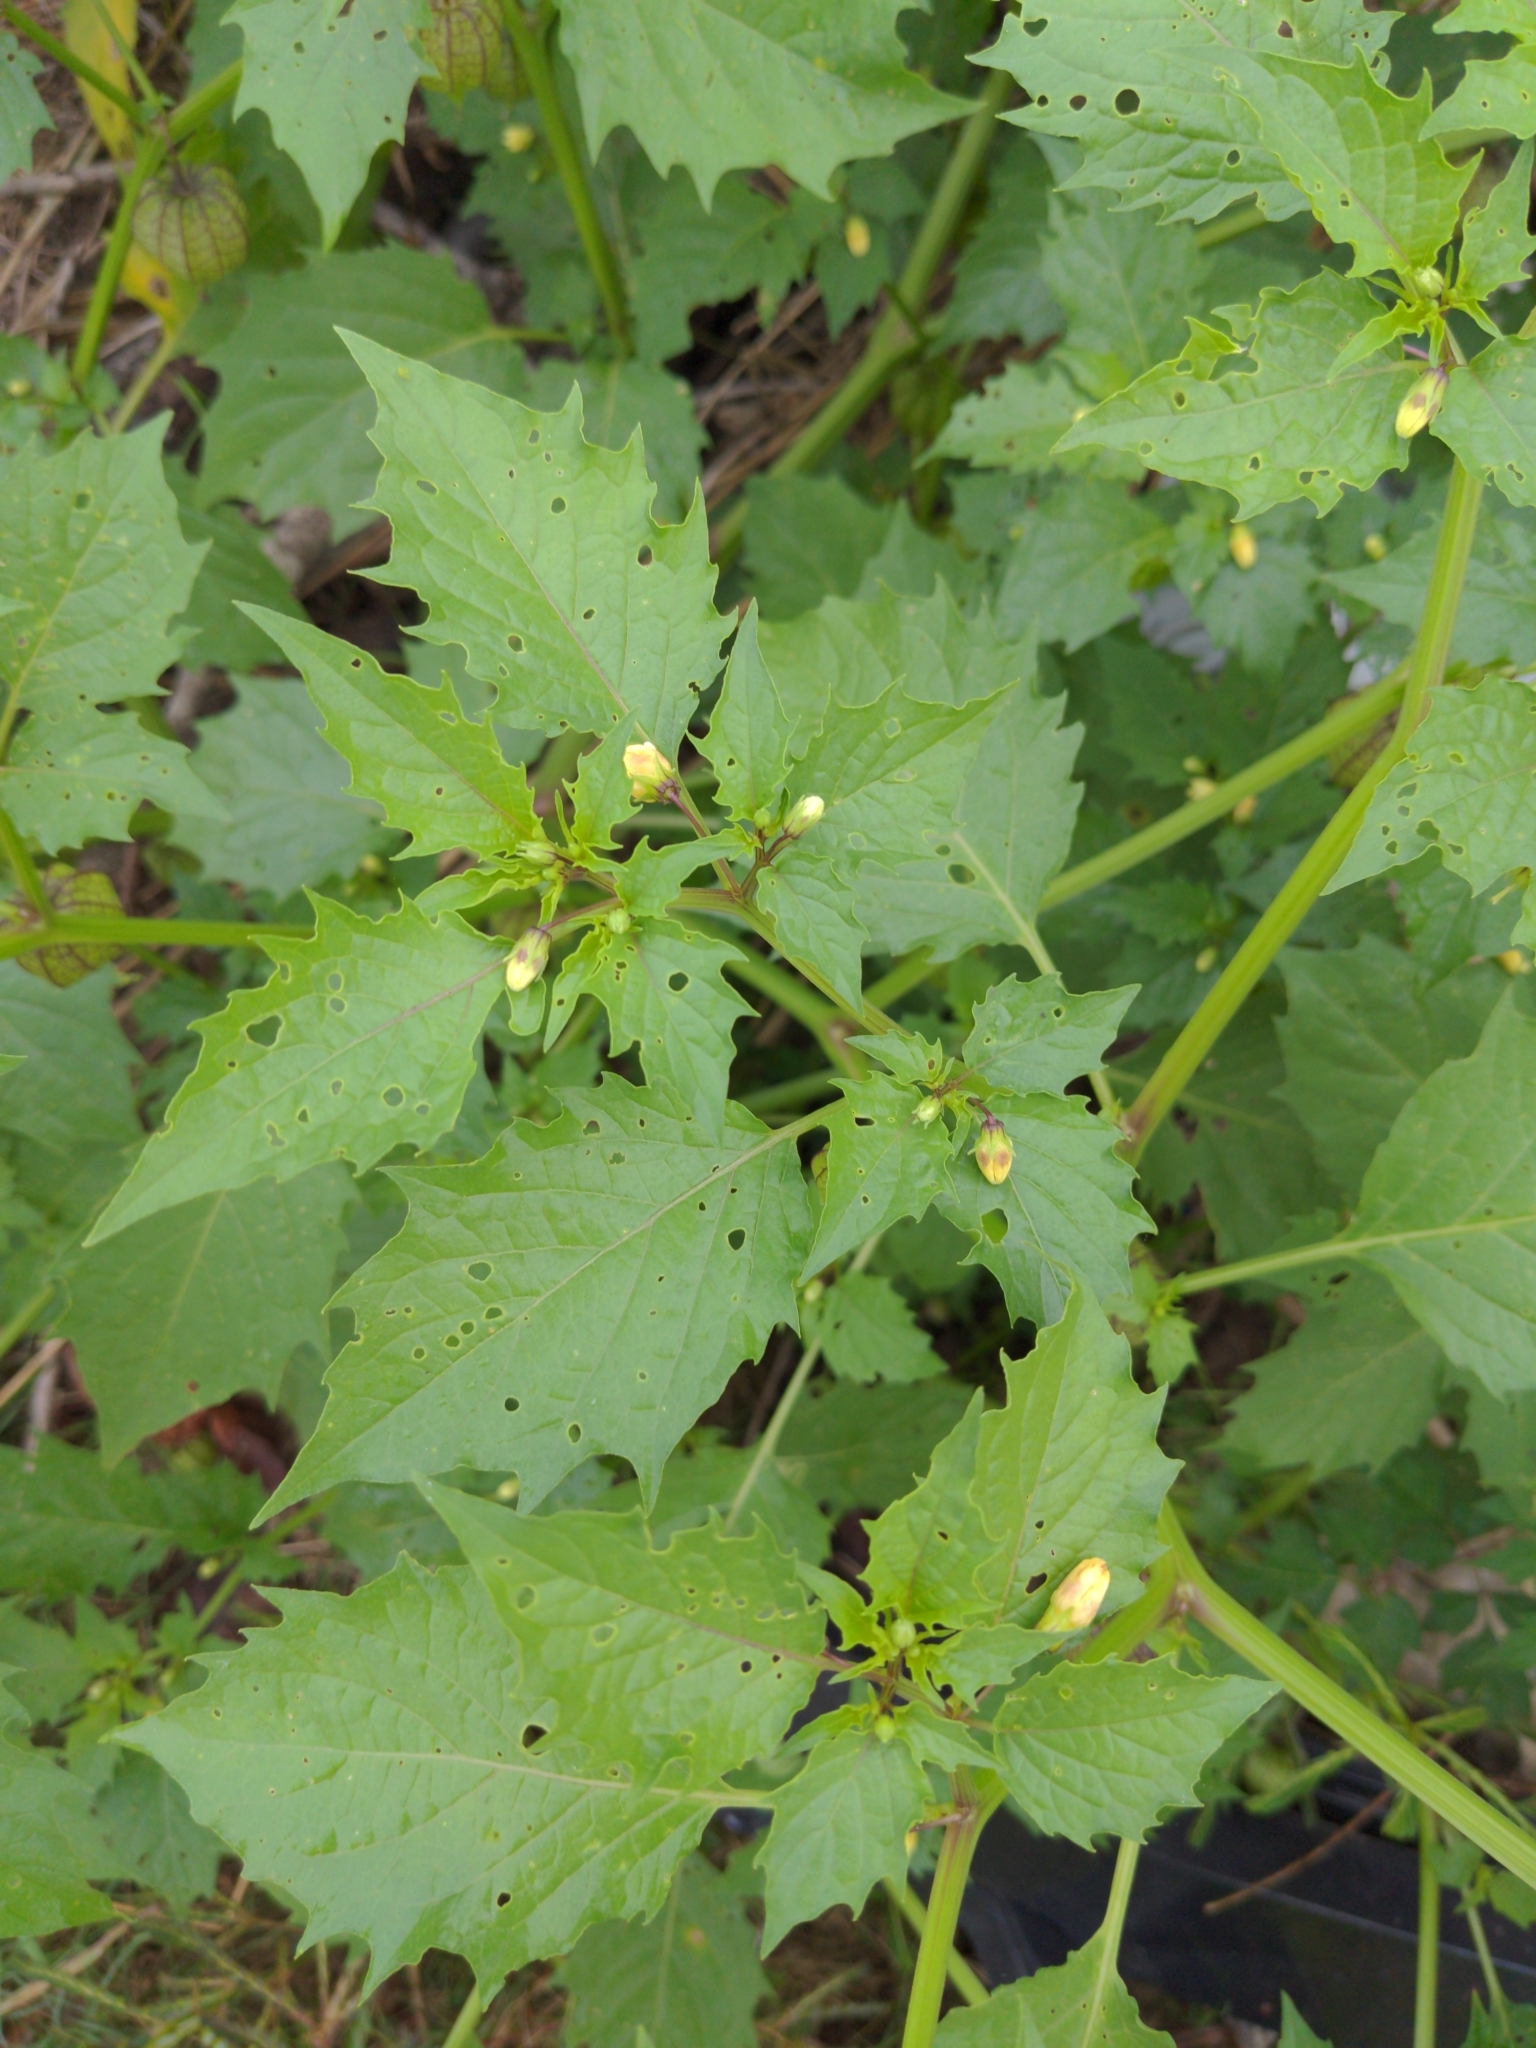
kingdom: Plantae
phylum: Tracheophyta
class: Magnoliopsida
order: Solanales
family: Solanaceae
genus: Physalis
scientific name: Physalis angulata
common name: Angular winter-cherry
